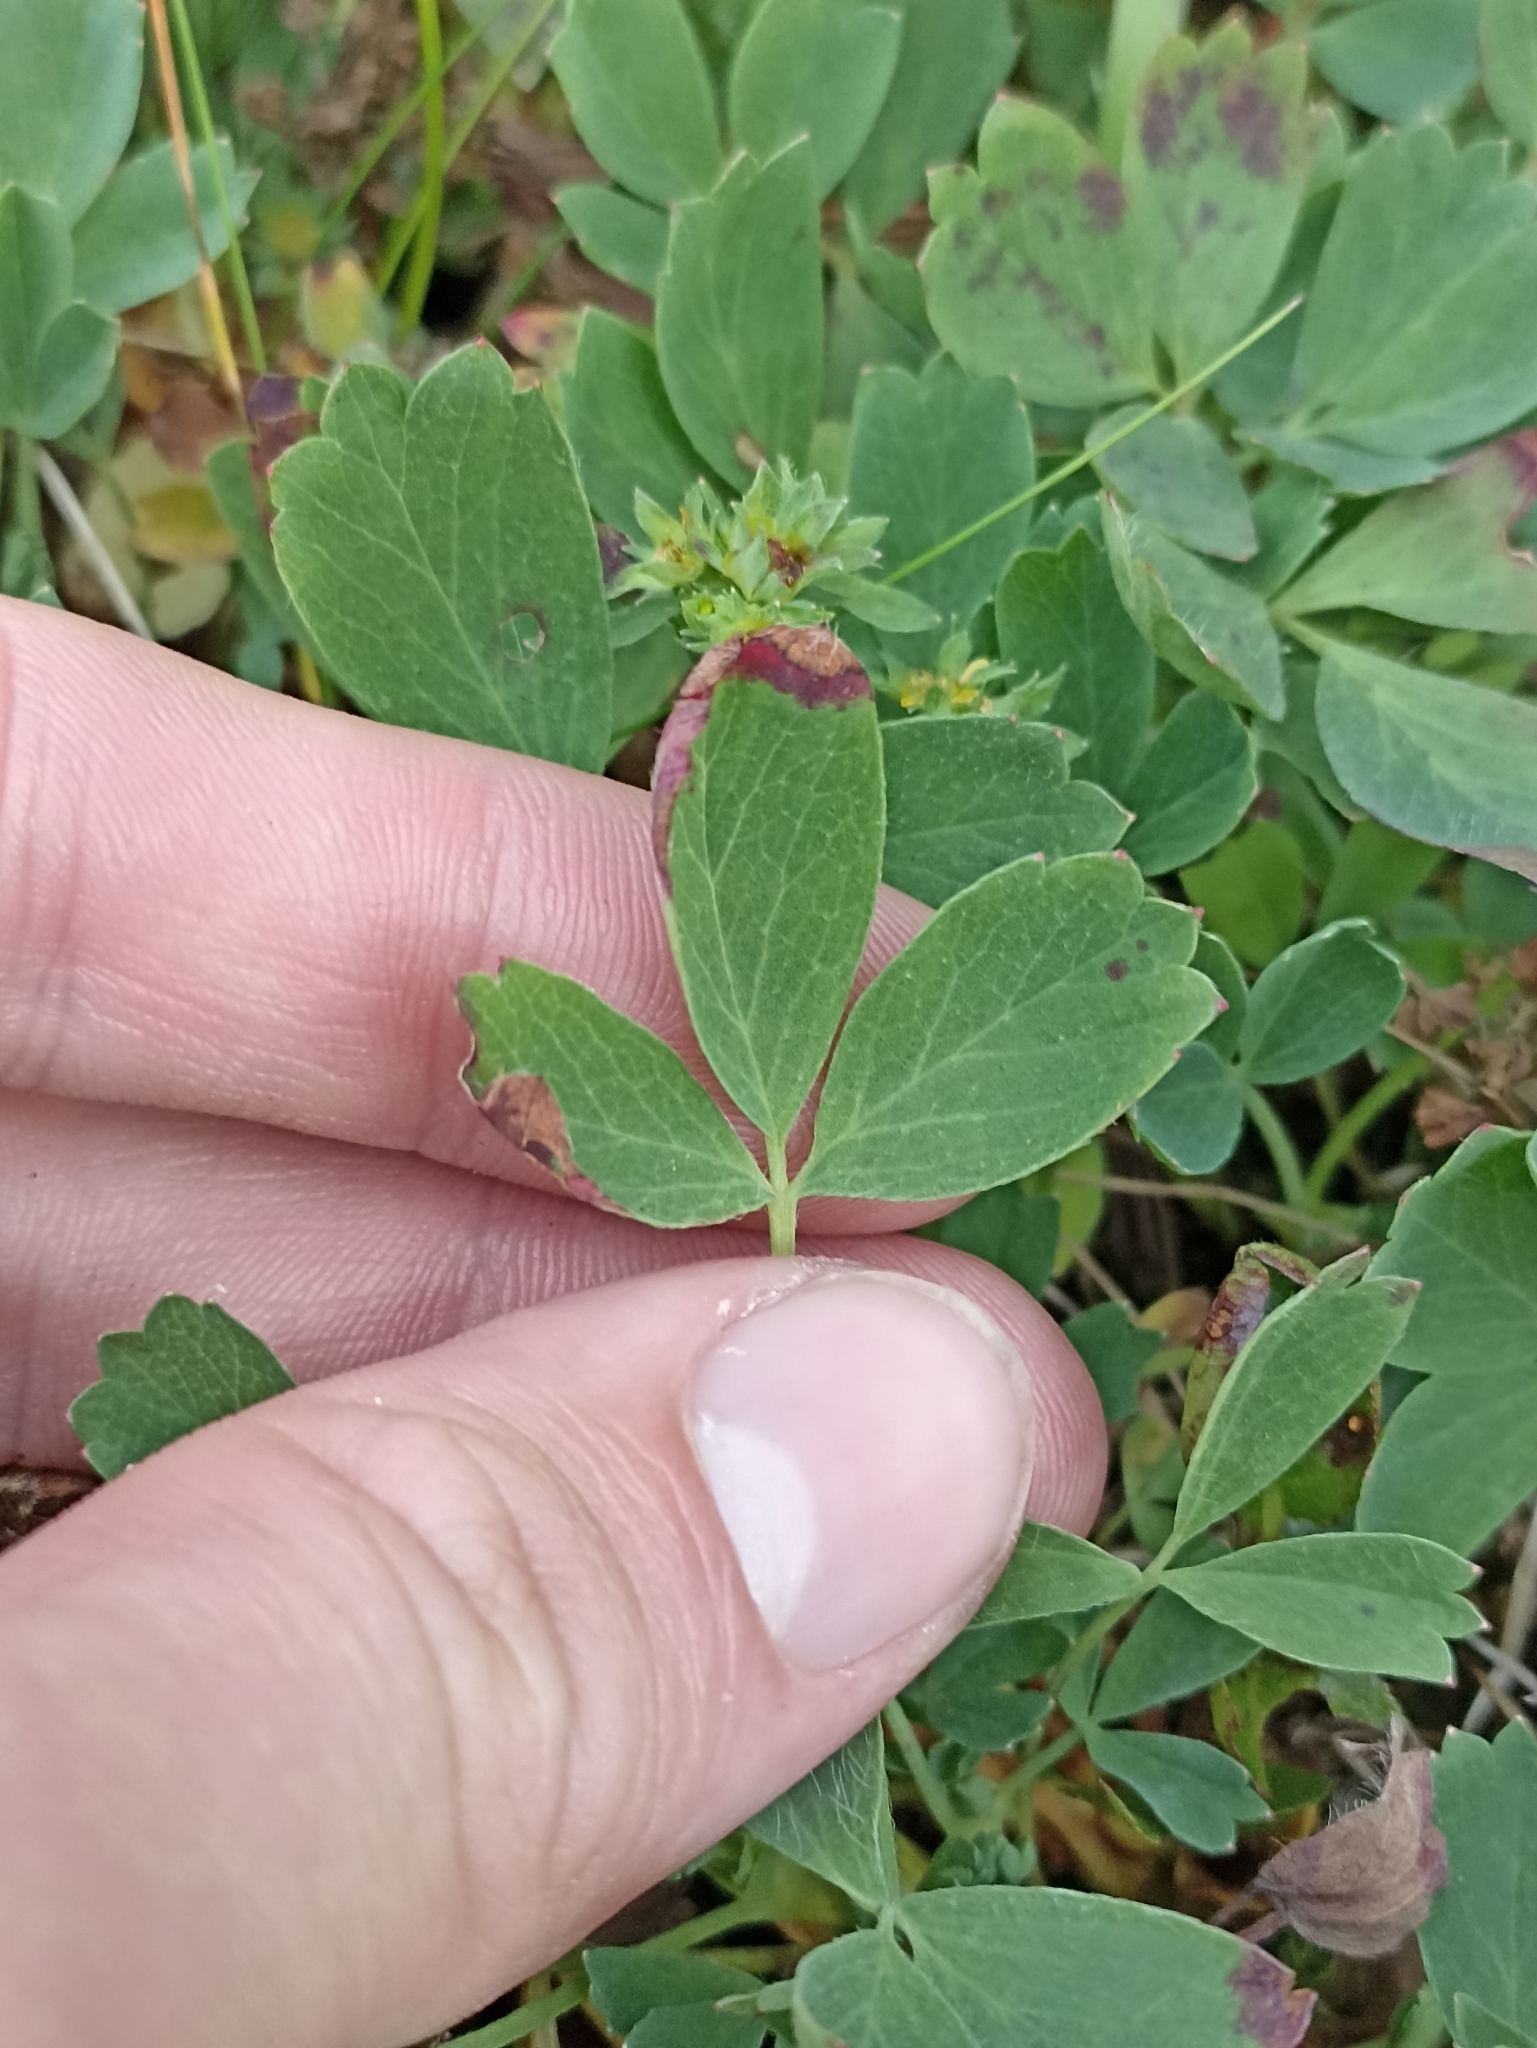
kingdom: Plantae
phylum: Tracheophyta
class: Magnoliopsida
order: Rosales
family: Rosaceae
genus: Sibbaldia
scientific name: Sibbaldia procumbens
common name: Creeping sibbaldia
